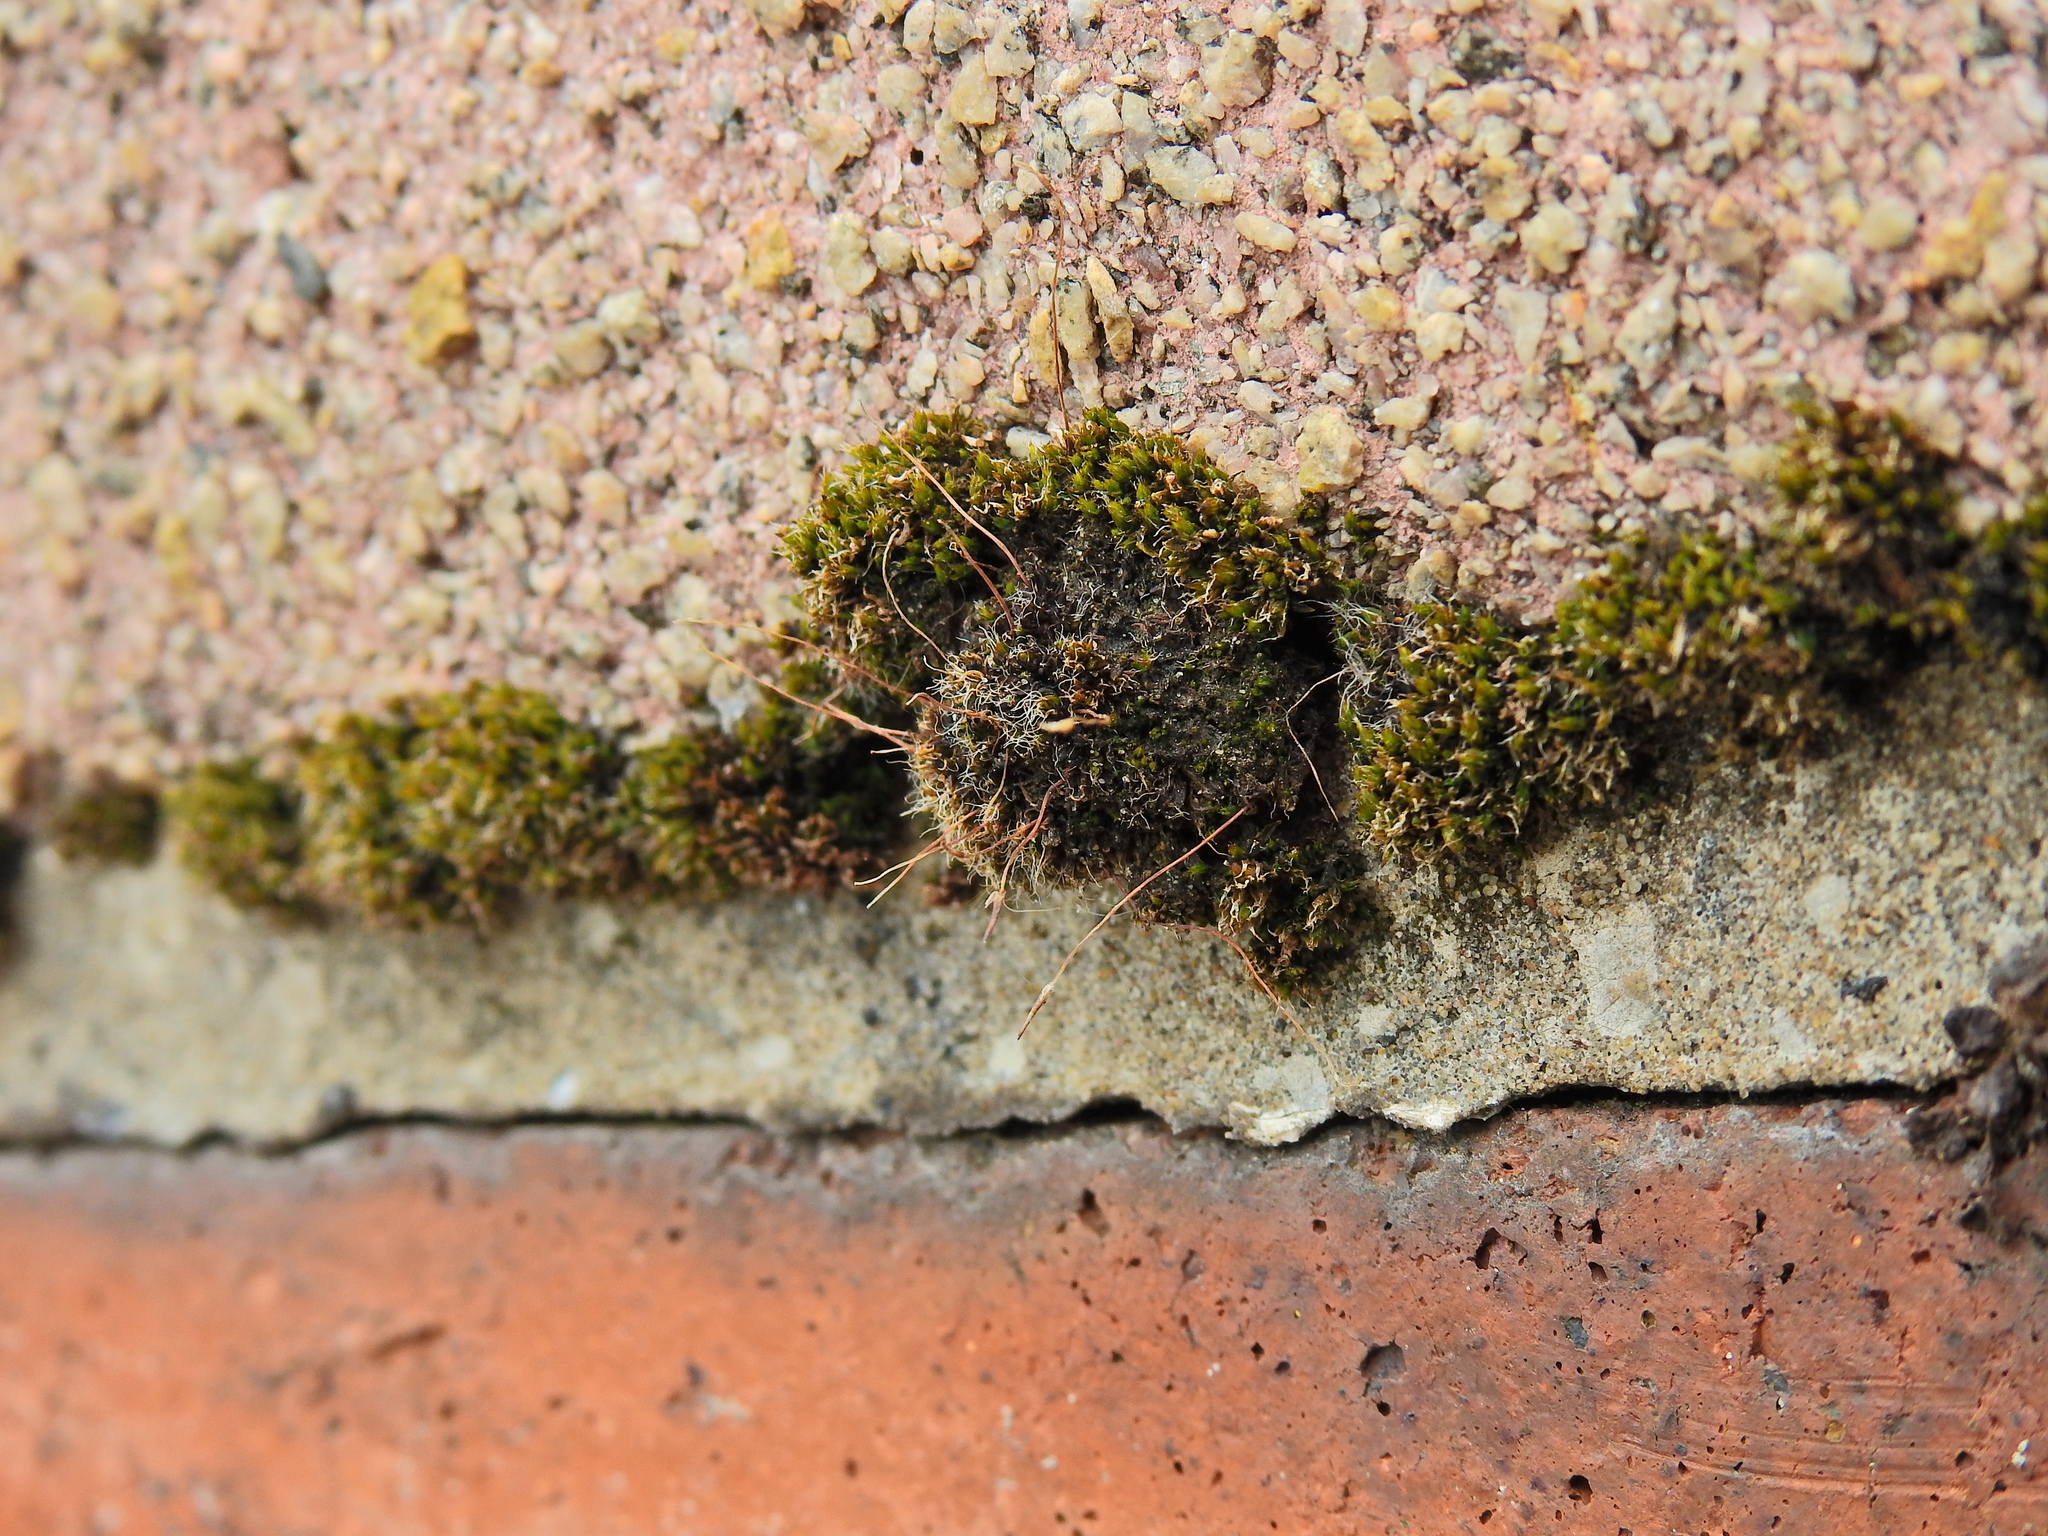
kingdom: Plantae
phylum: Bryophyta
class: Bryopsida
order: Pottiales
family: Pottiaceae
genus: Tortula
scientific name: Tortula muralis
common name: Wall screw-moss
